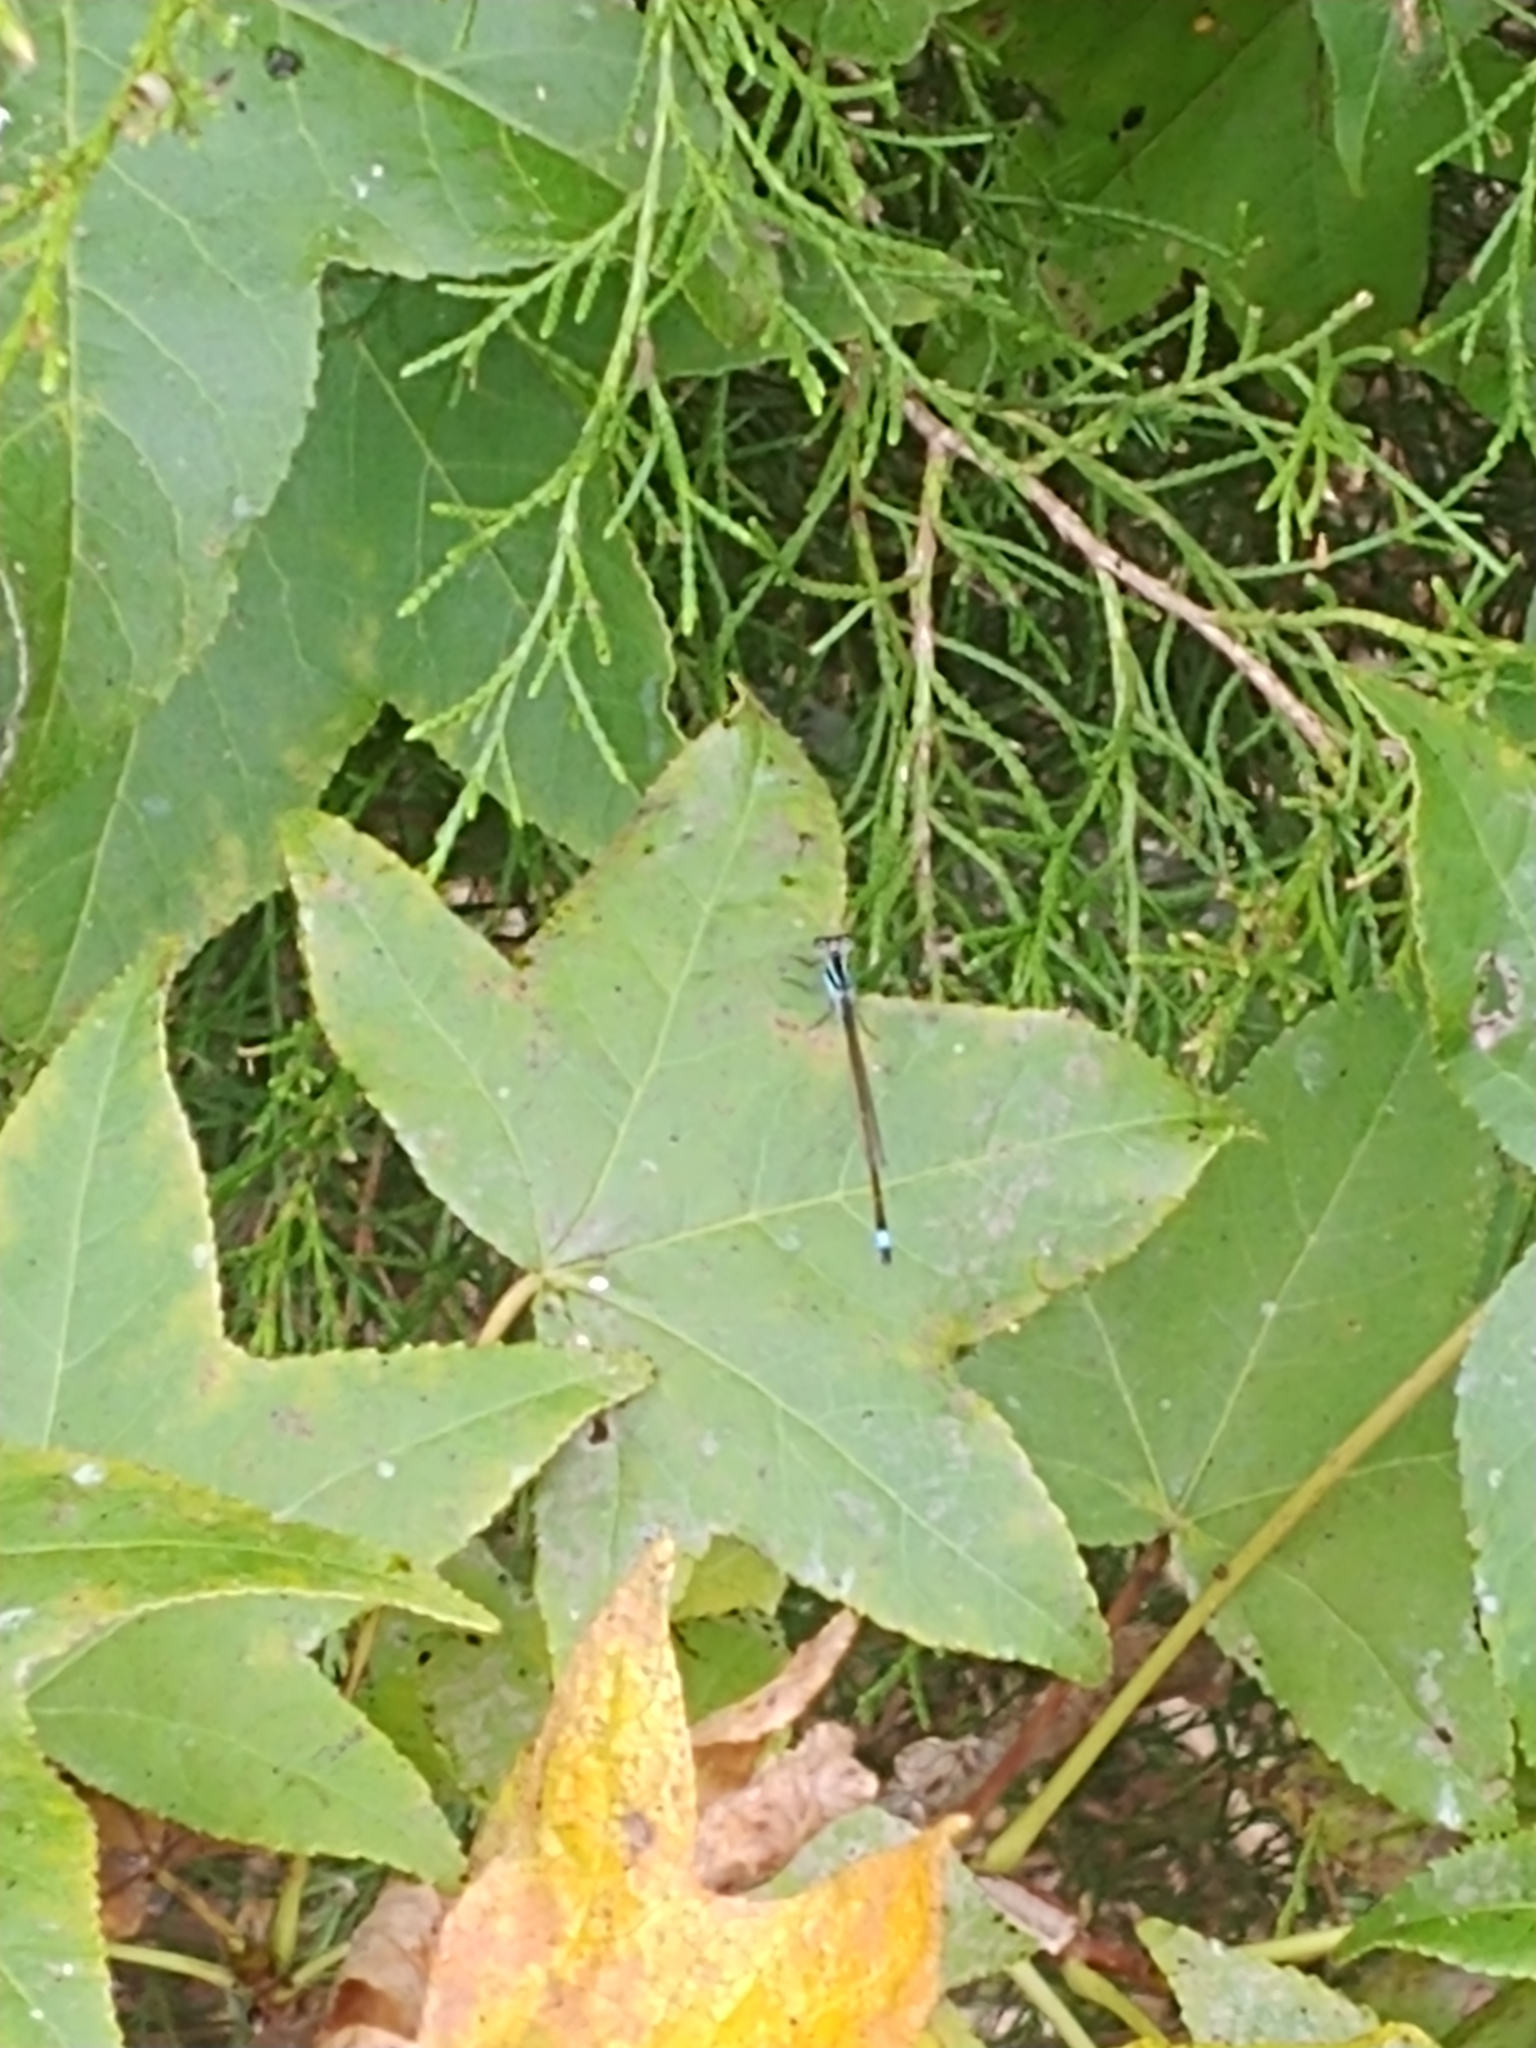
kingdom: Animalia
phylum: Arthropoda
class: Insecta
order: Odonata
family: Coenagrionidae
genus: Ischnura
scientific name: Ischnura ramburii
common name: Rambur's forktail
